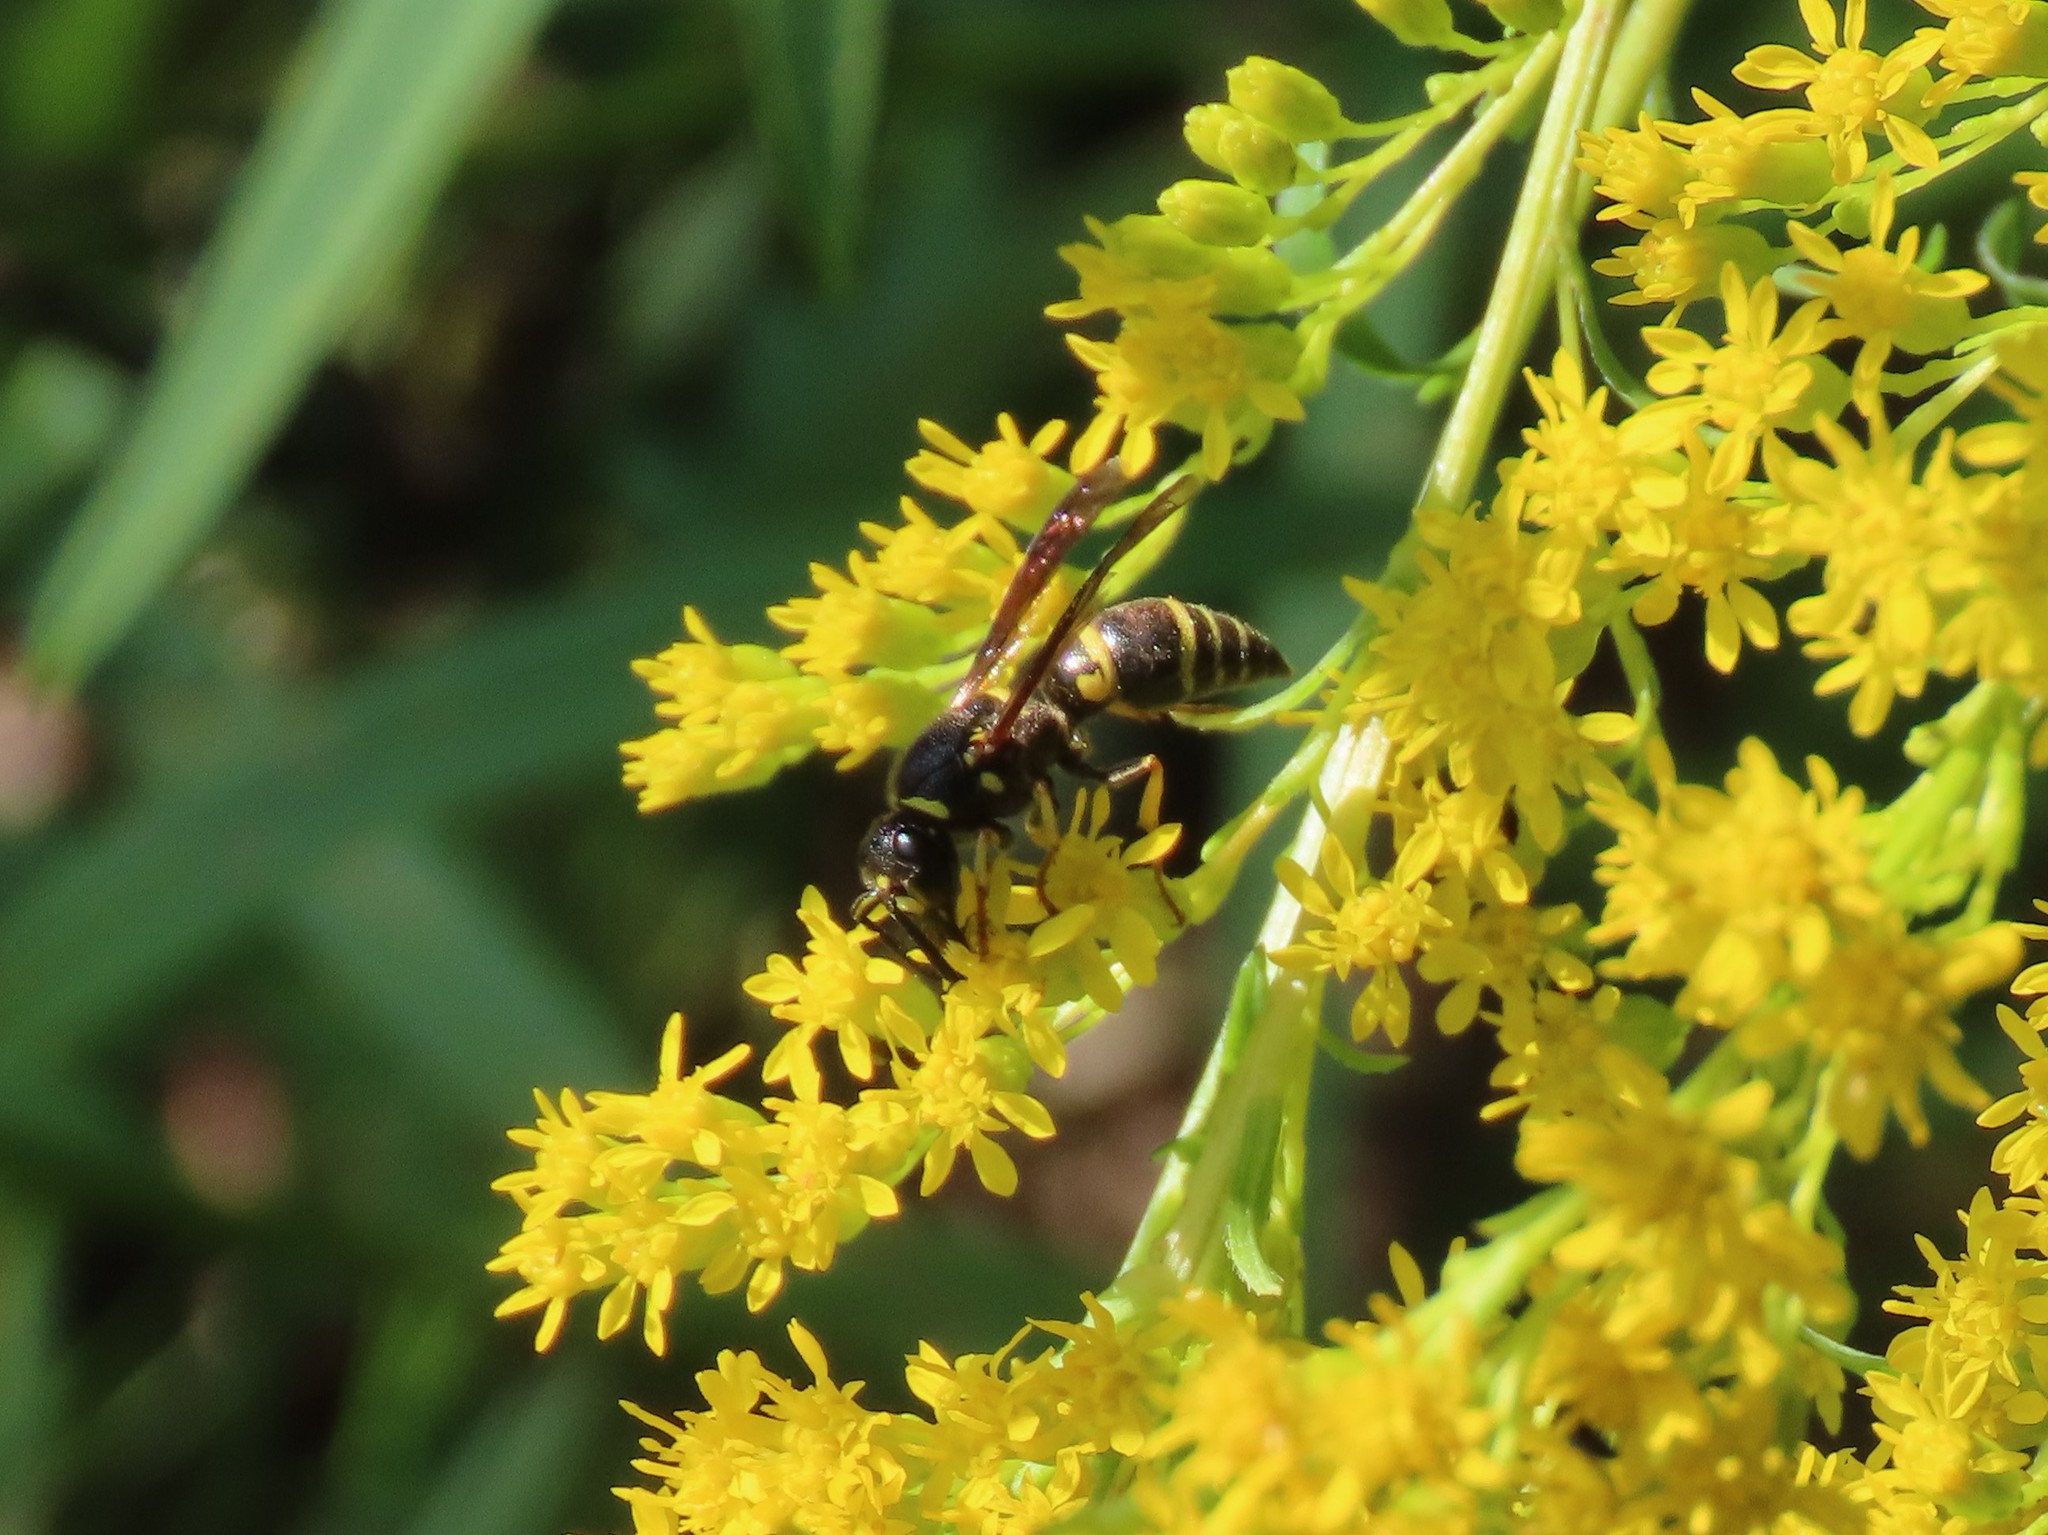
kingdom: Animalia
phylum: Arthropoda
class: Insecta
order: Hymenoptera
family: Eumenidae
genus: Euodynerus
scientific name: Euodynerus foraminatus
